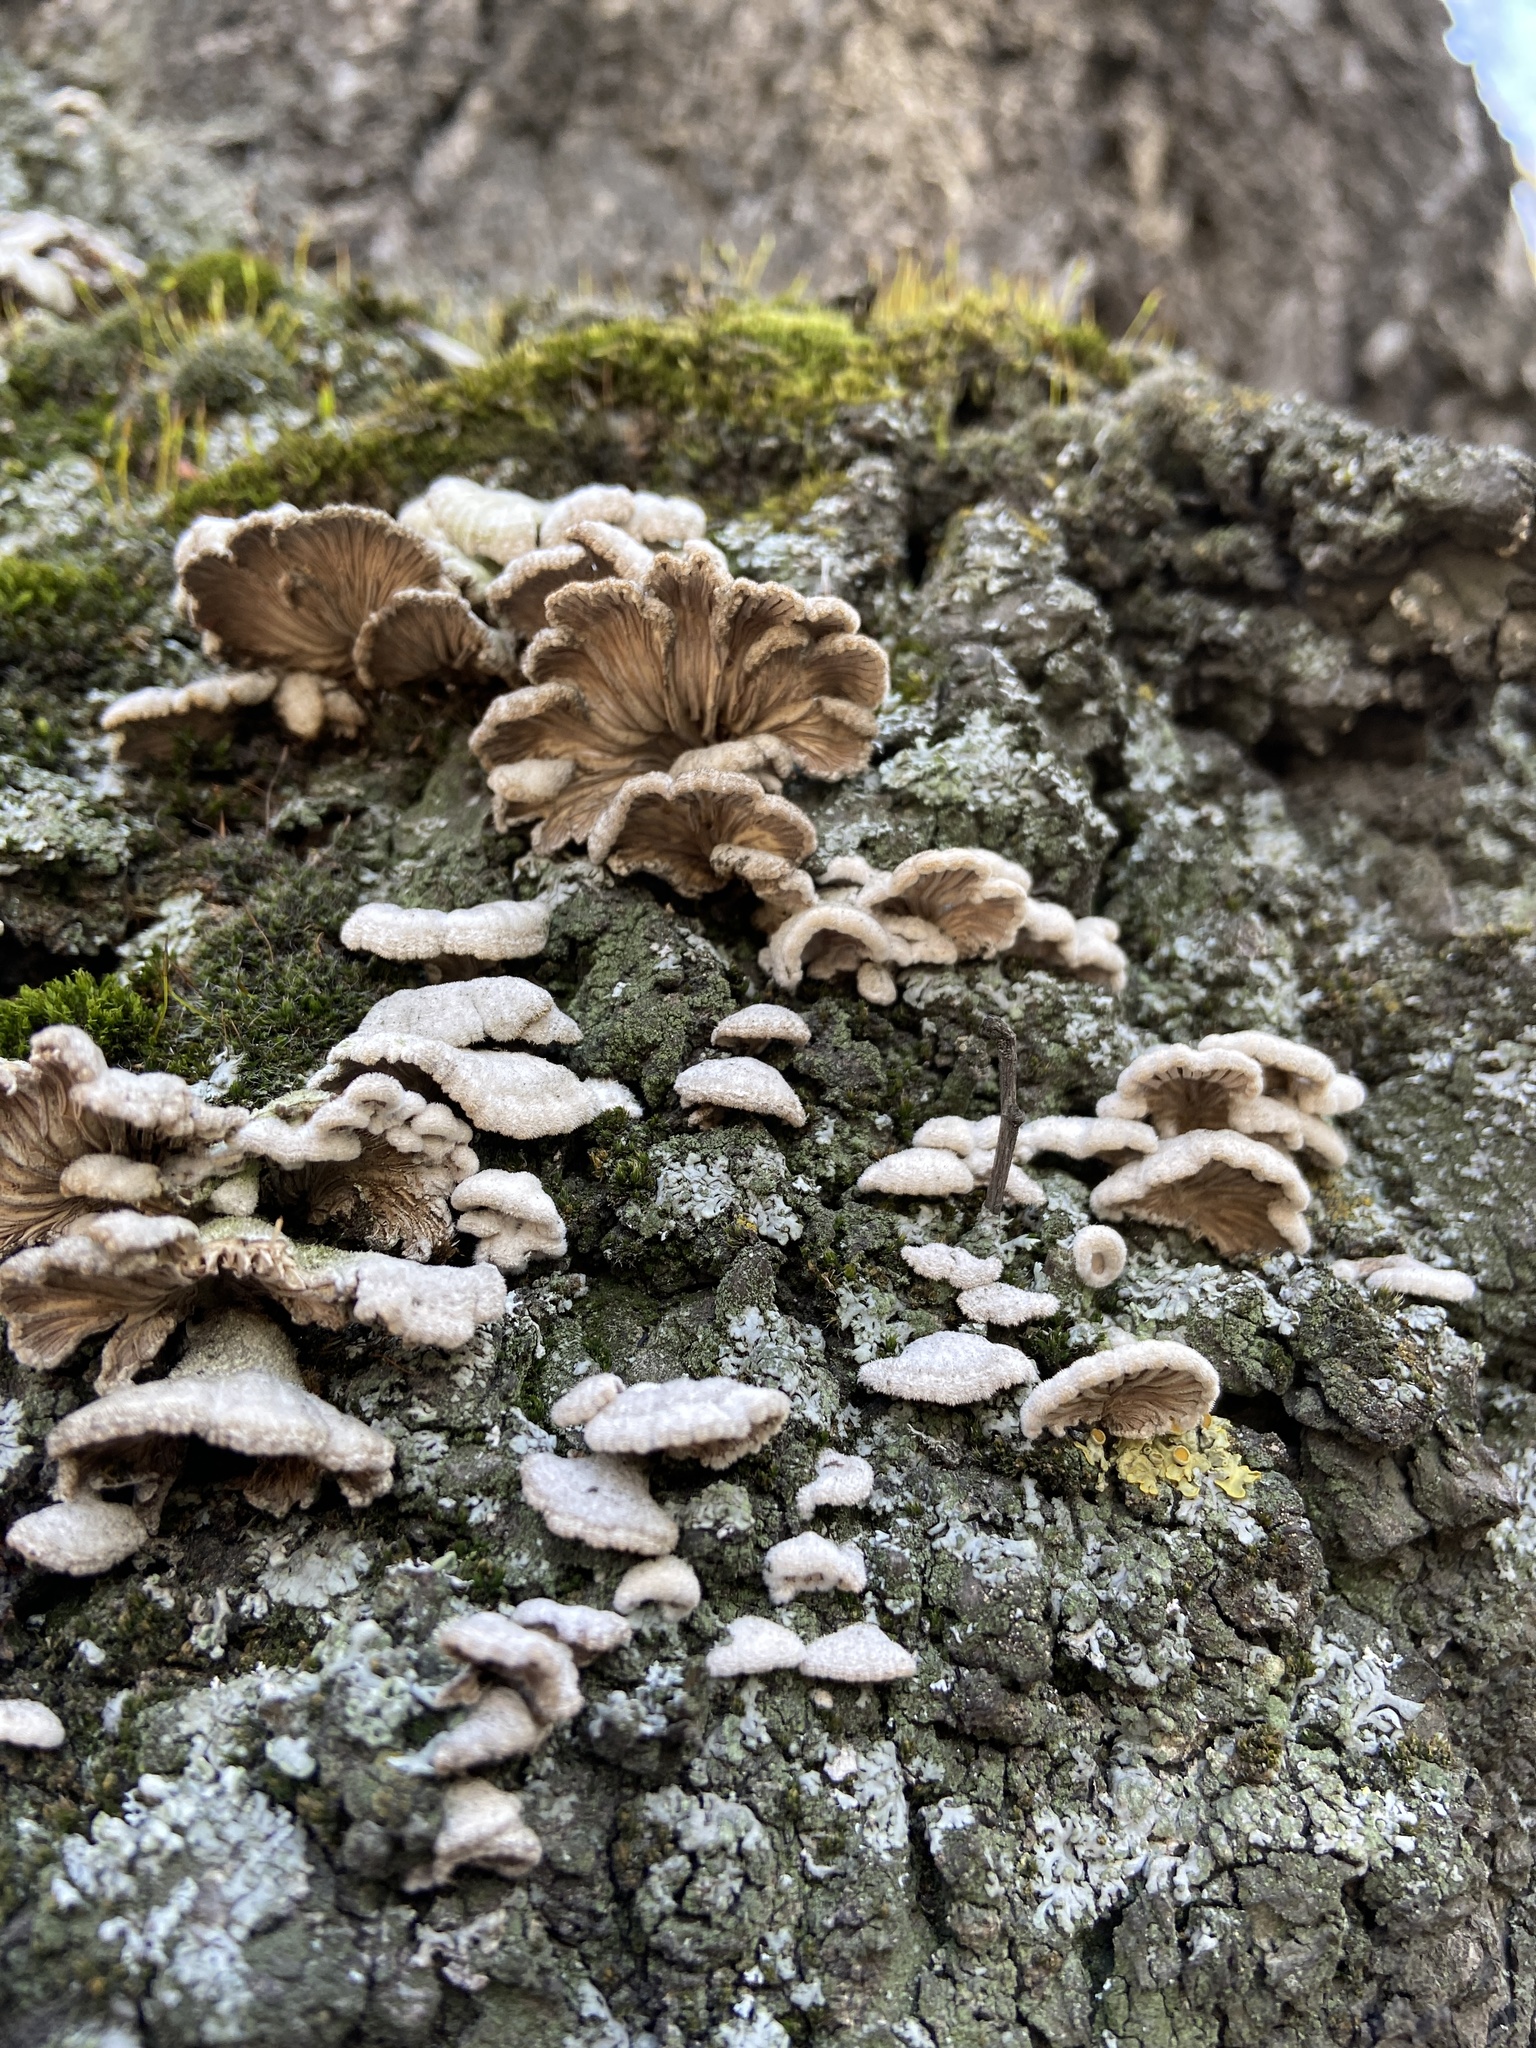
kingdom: Fungi
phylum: Basidiomycota
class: Agaricomycetes
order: Agaricales
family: Schizophyllaceae
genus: Schizophyllum
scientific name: Schizophyllum commune
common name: Common porecrust
